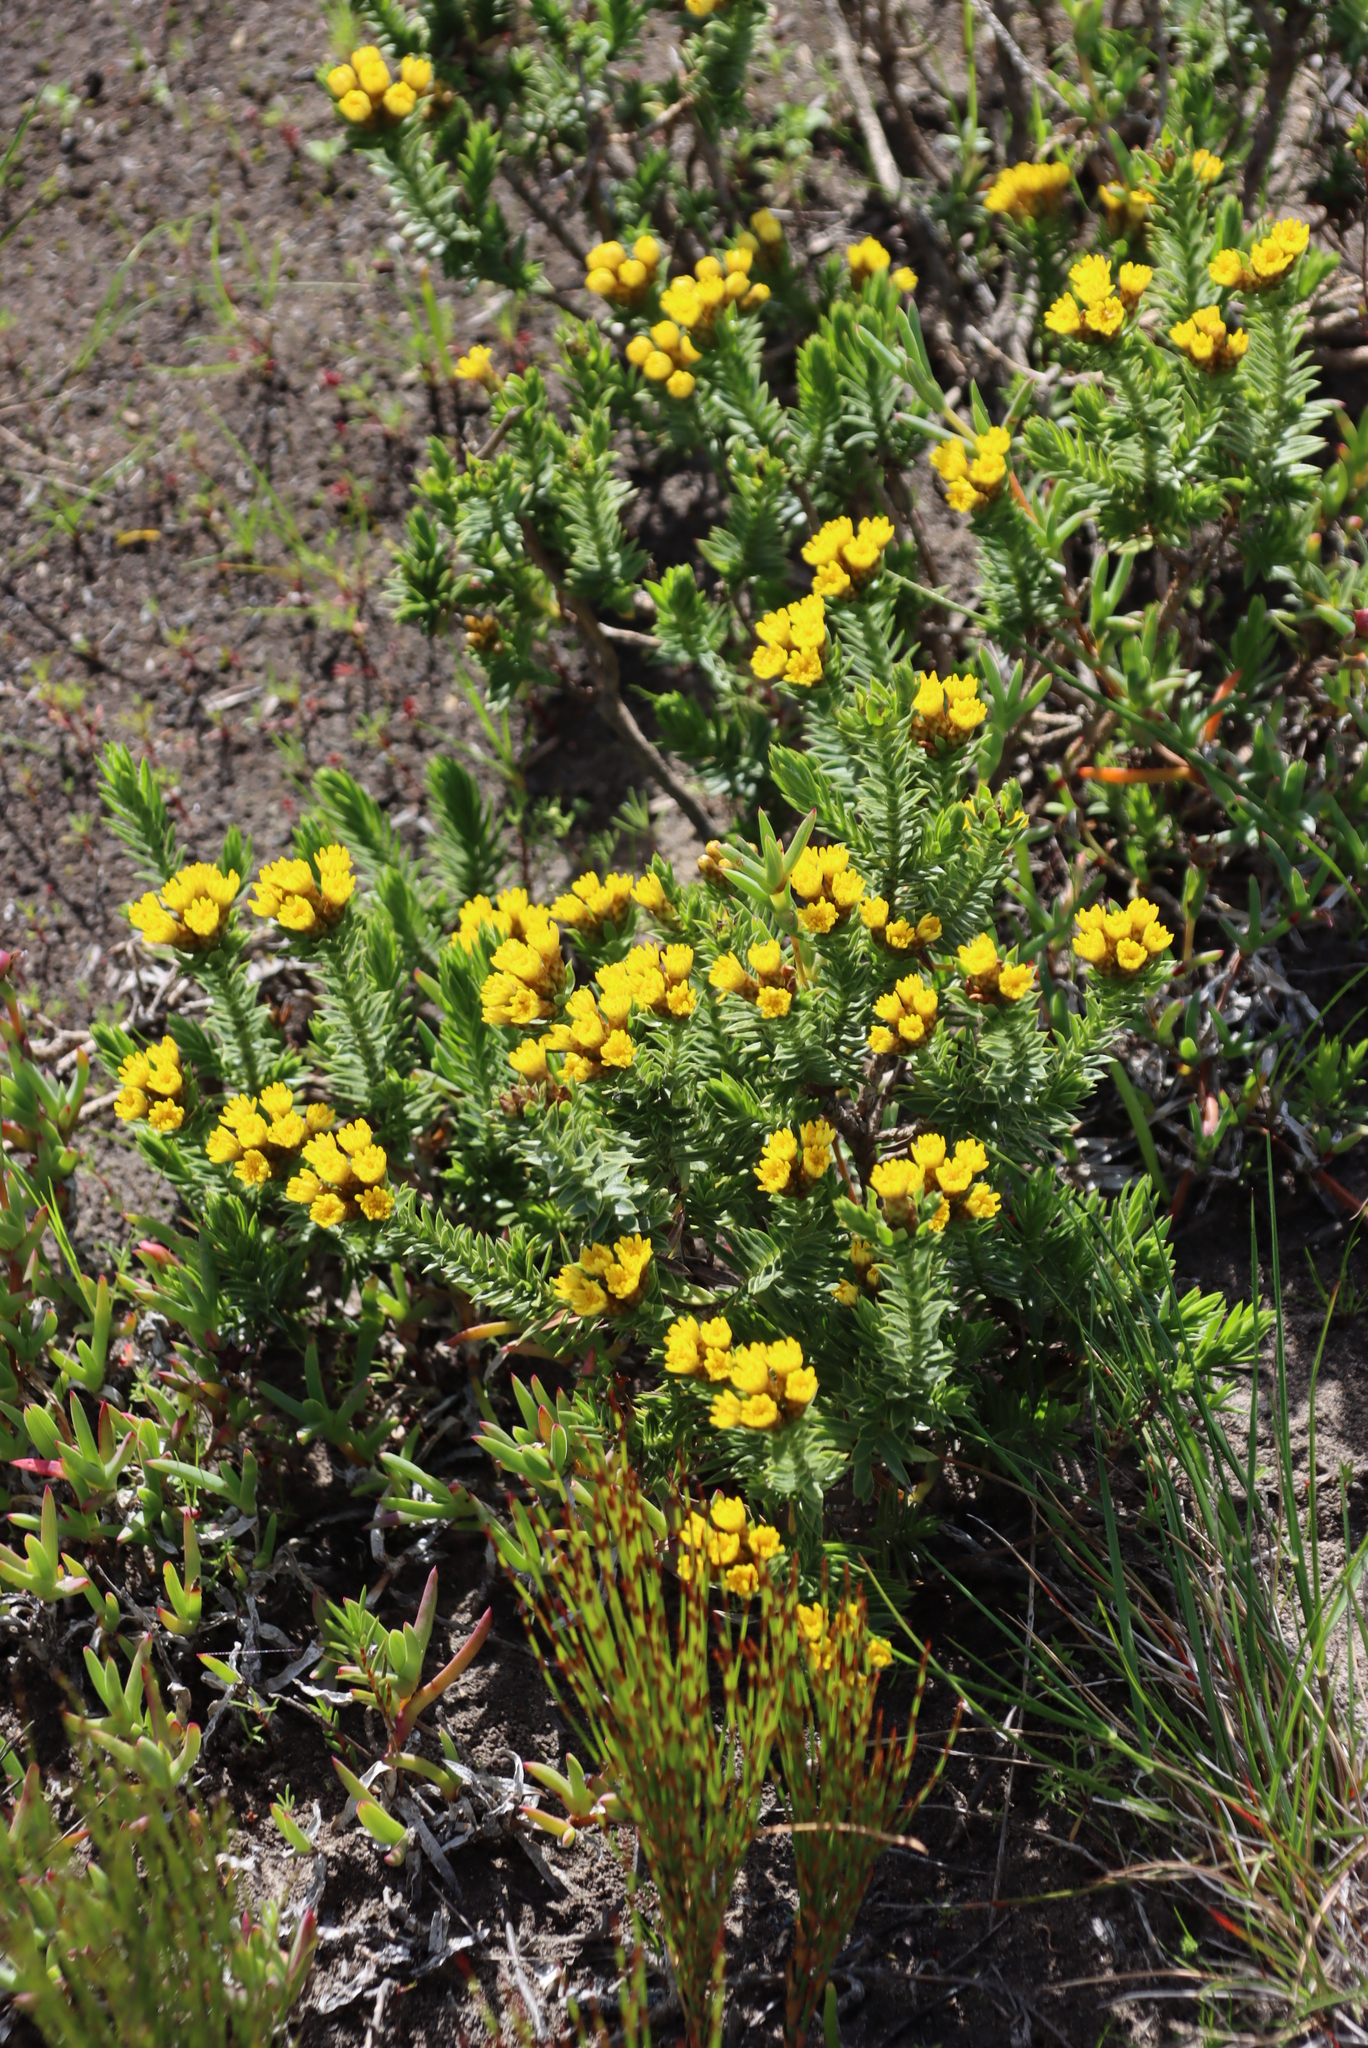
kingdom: Plantae
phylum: Tracheophyta
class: Magnoliopsida
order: Asterales
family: Asteraceae
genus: Oedera
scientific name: Oedera steyniae
